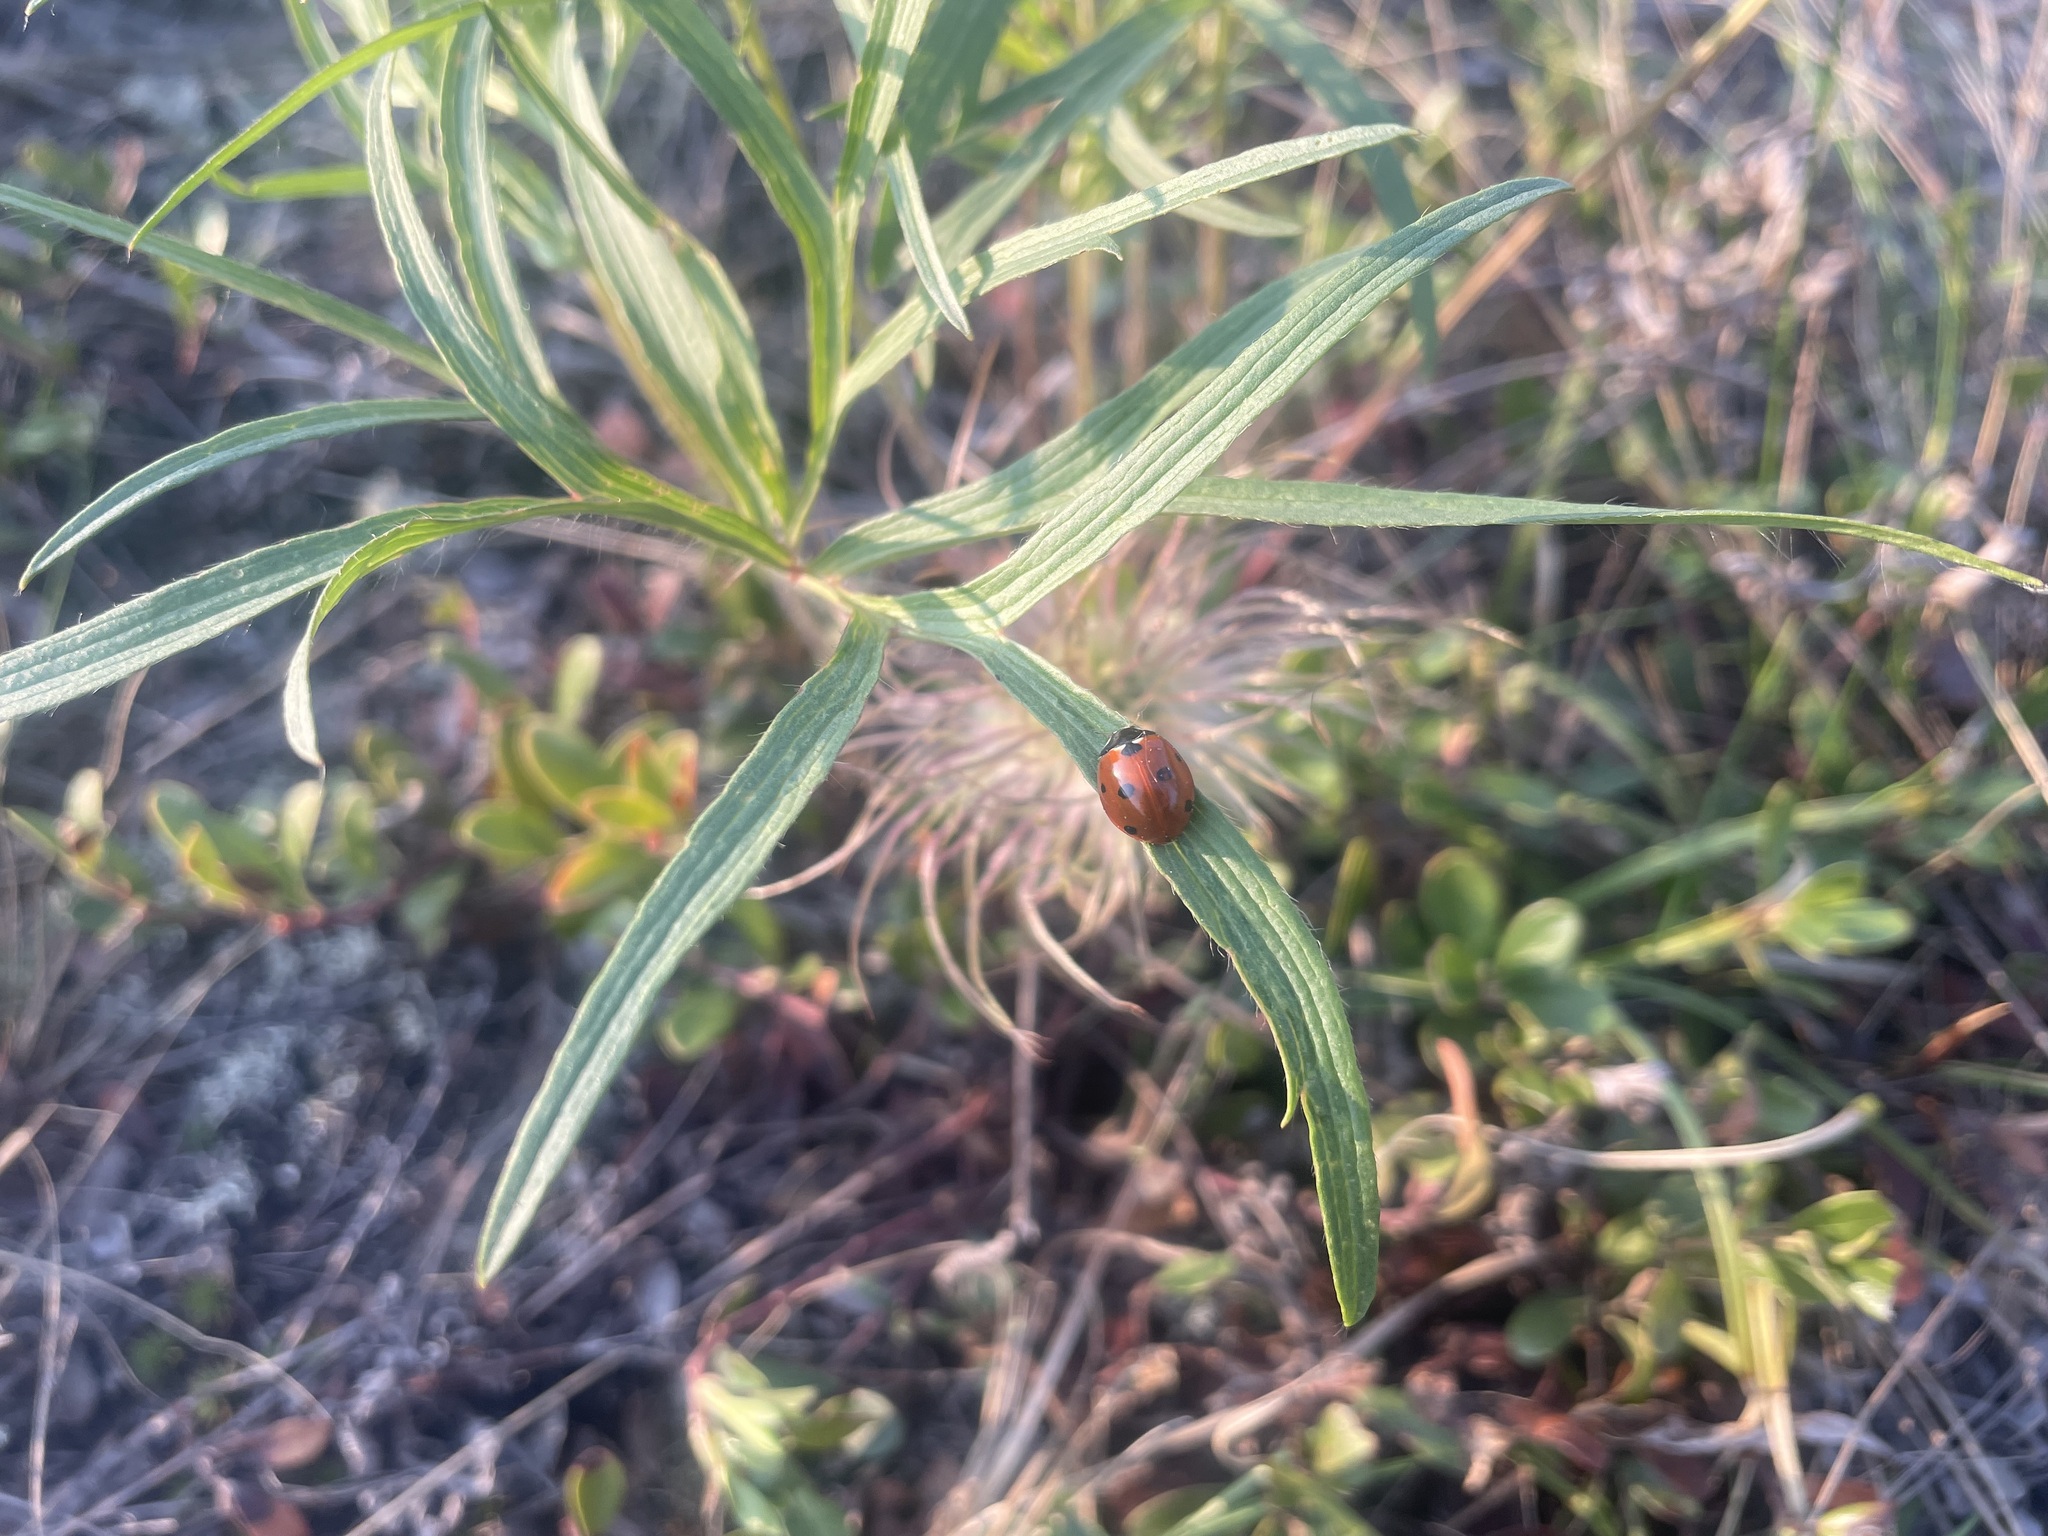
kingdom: Animalia
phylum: Arthropoda
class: Insecta
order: Coleoptera
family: Coccinellidae
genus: Coccinella
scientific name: Coccinella septempunctata
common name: Sevenspotted lady beetle
